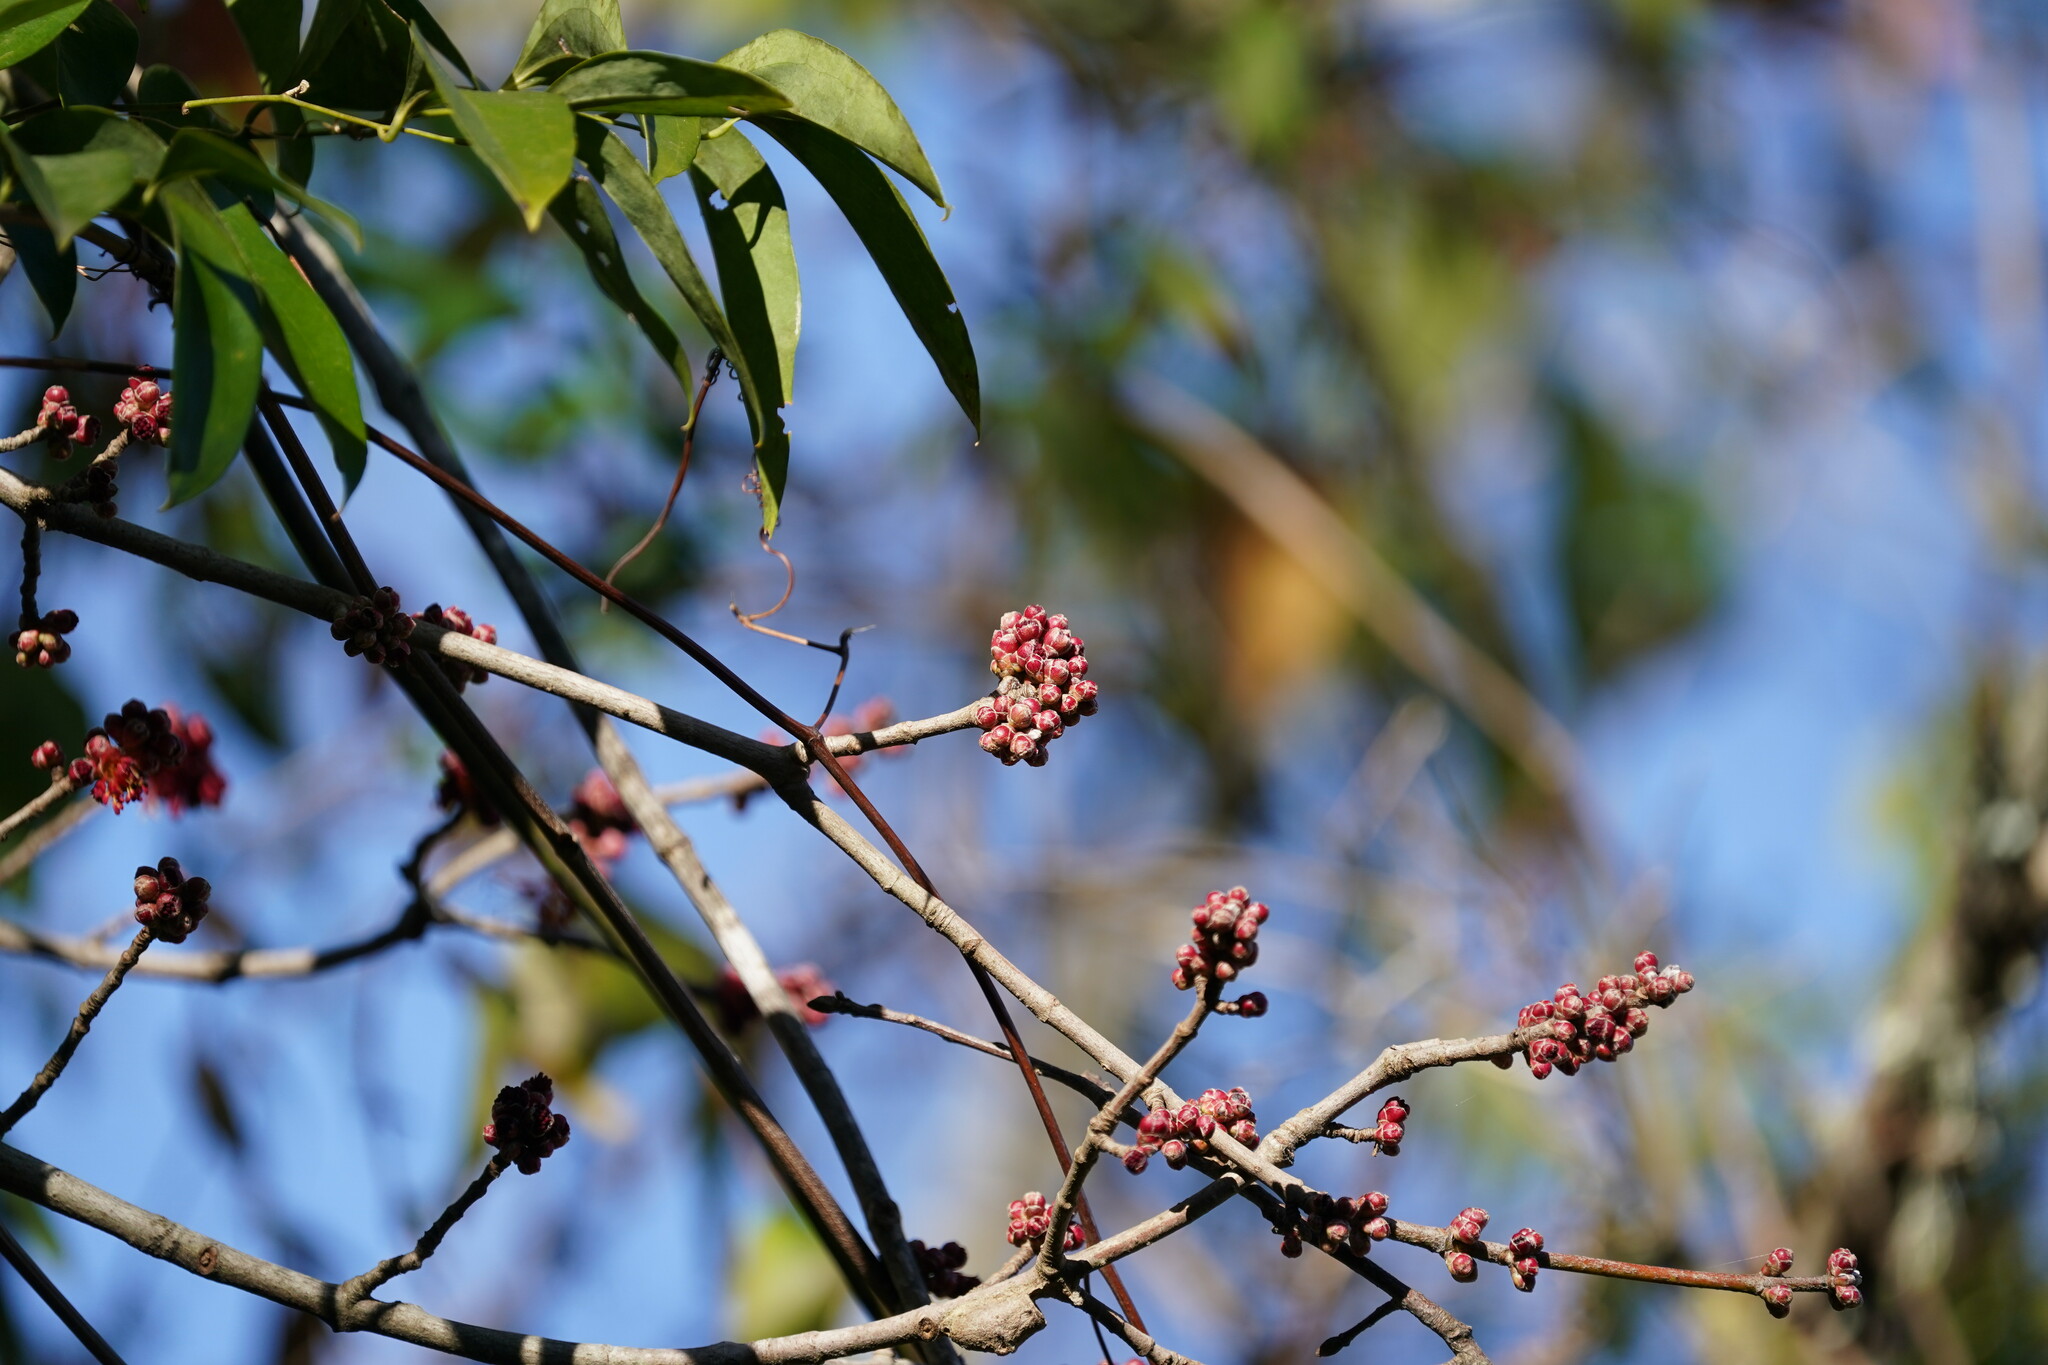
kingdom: Plantae
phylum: Tracheophyta
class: Magnoliopsida
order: Sapindales
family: Sapindaceae
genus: Acer
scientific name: Acer rubrum
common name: Red maple
